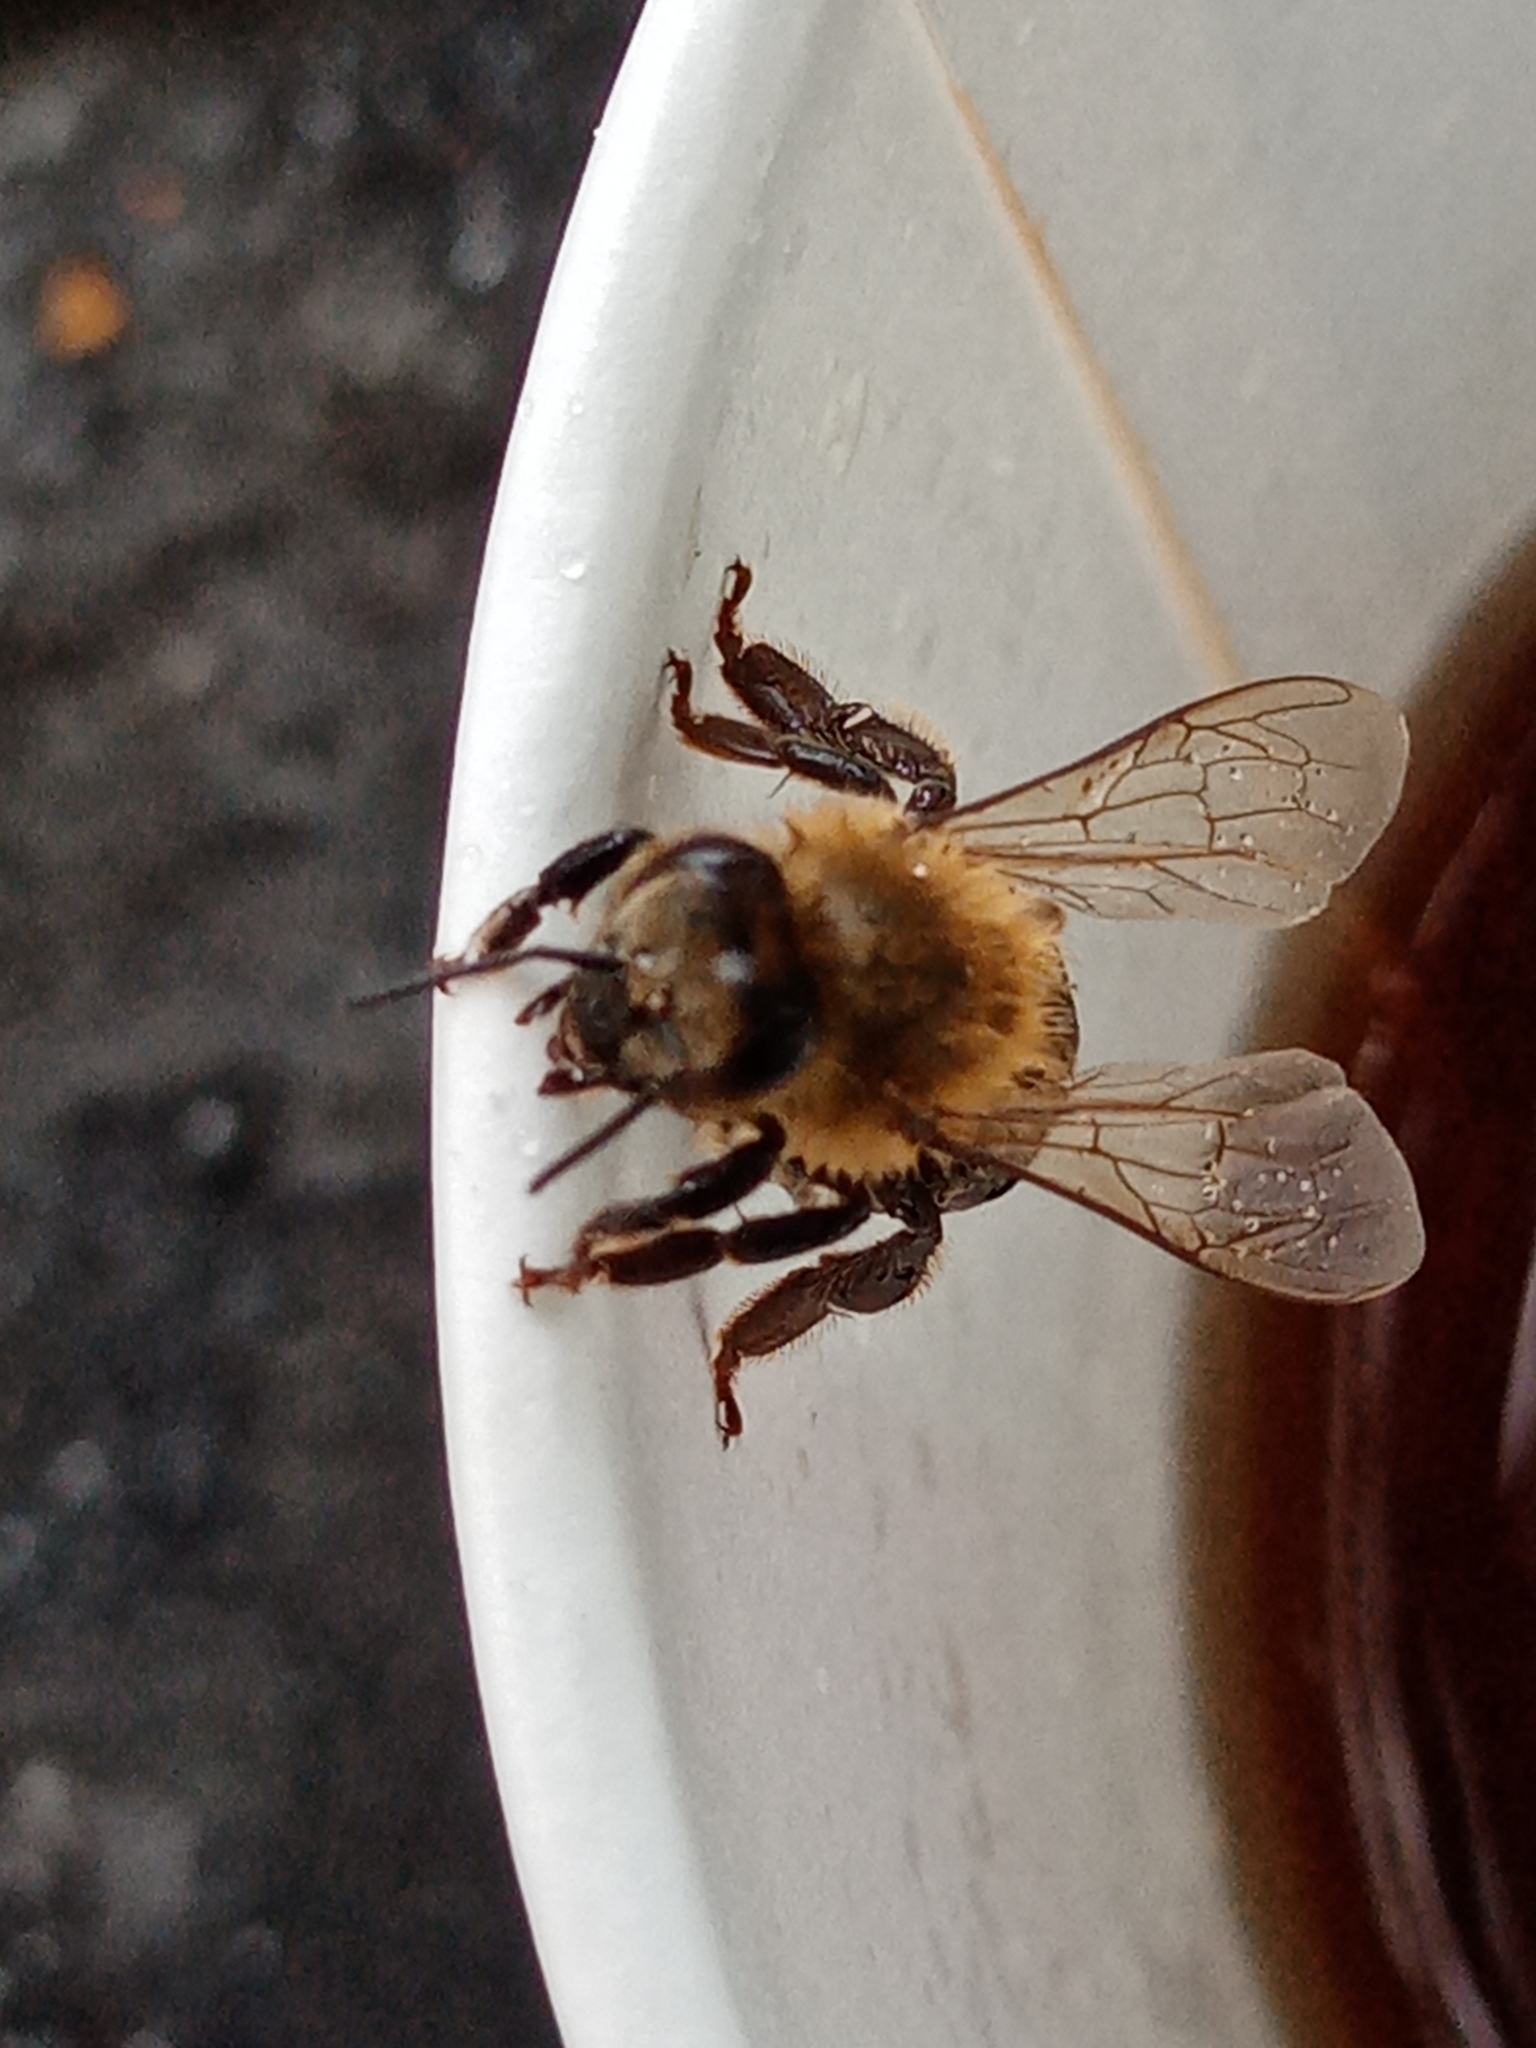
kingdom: Animalia
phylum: Arthropoda
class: Insecta
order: Hymenoptera
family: Apidae
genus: Apis
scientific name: Apis mellifera
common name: Honey bee
